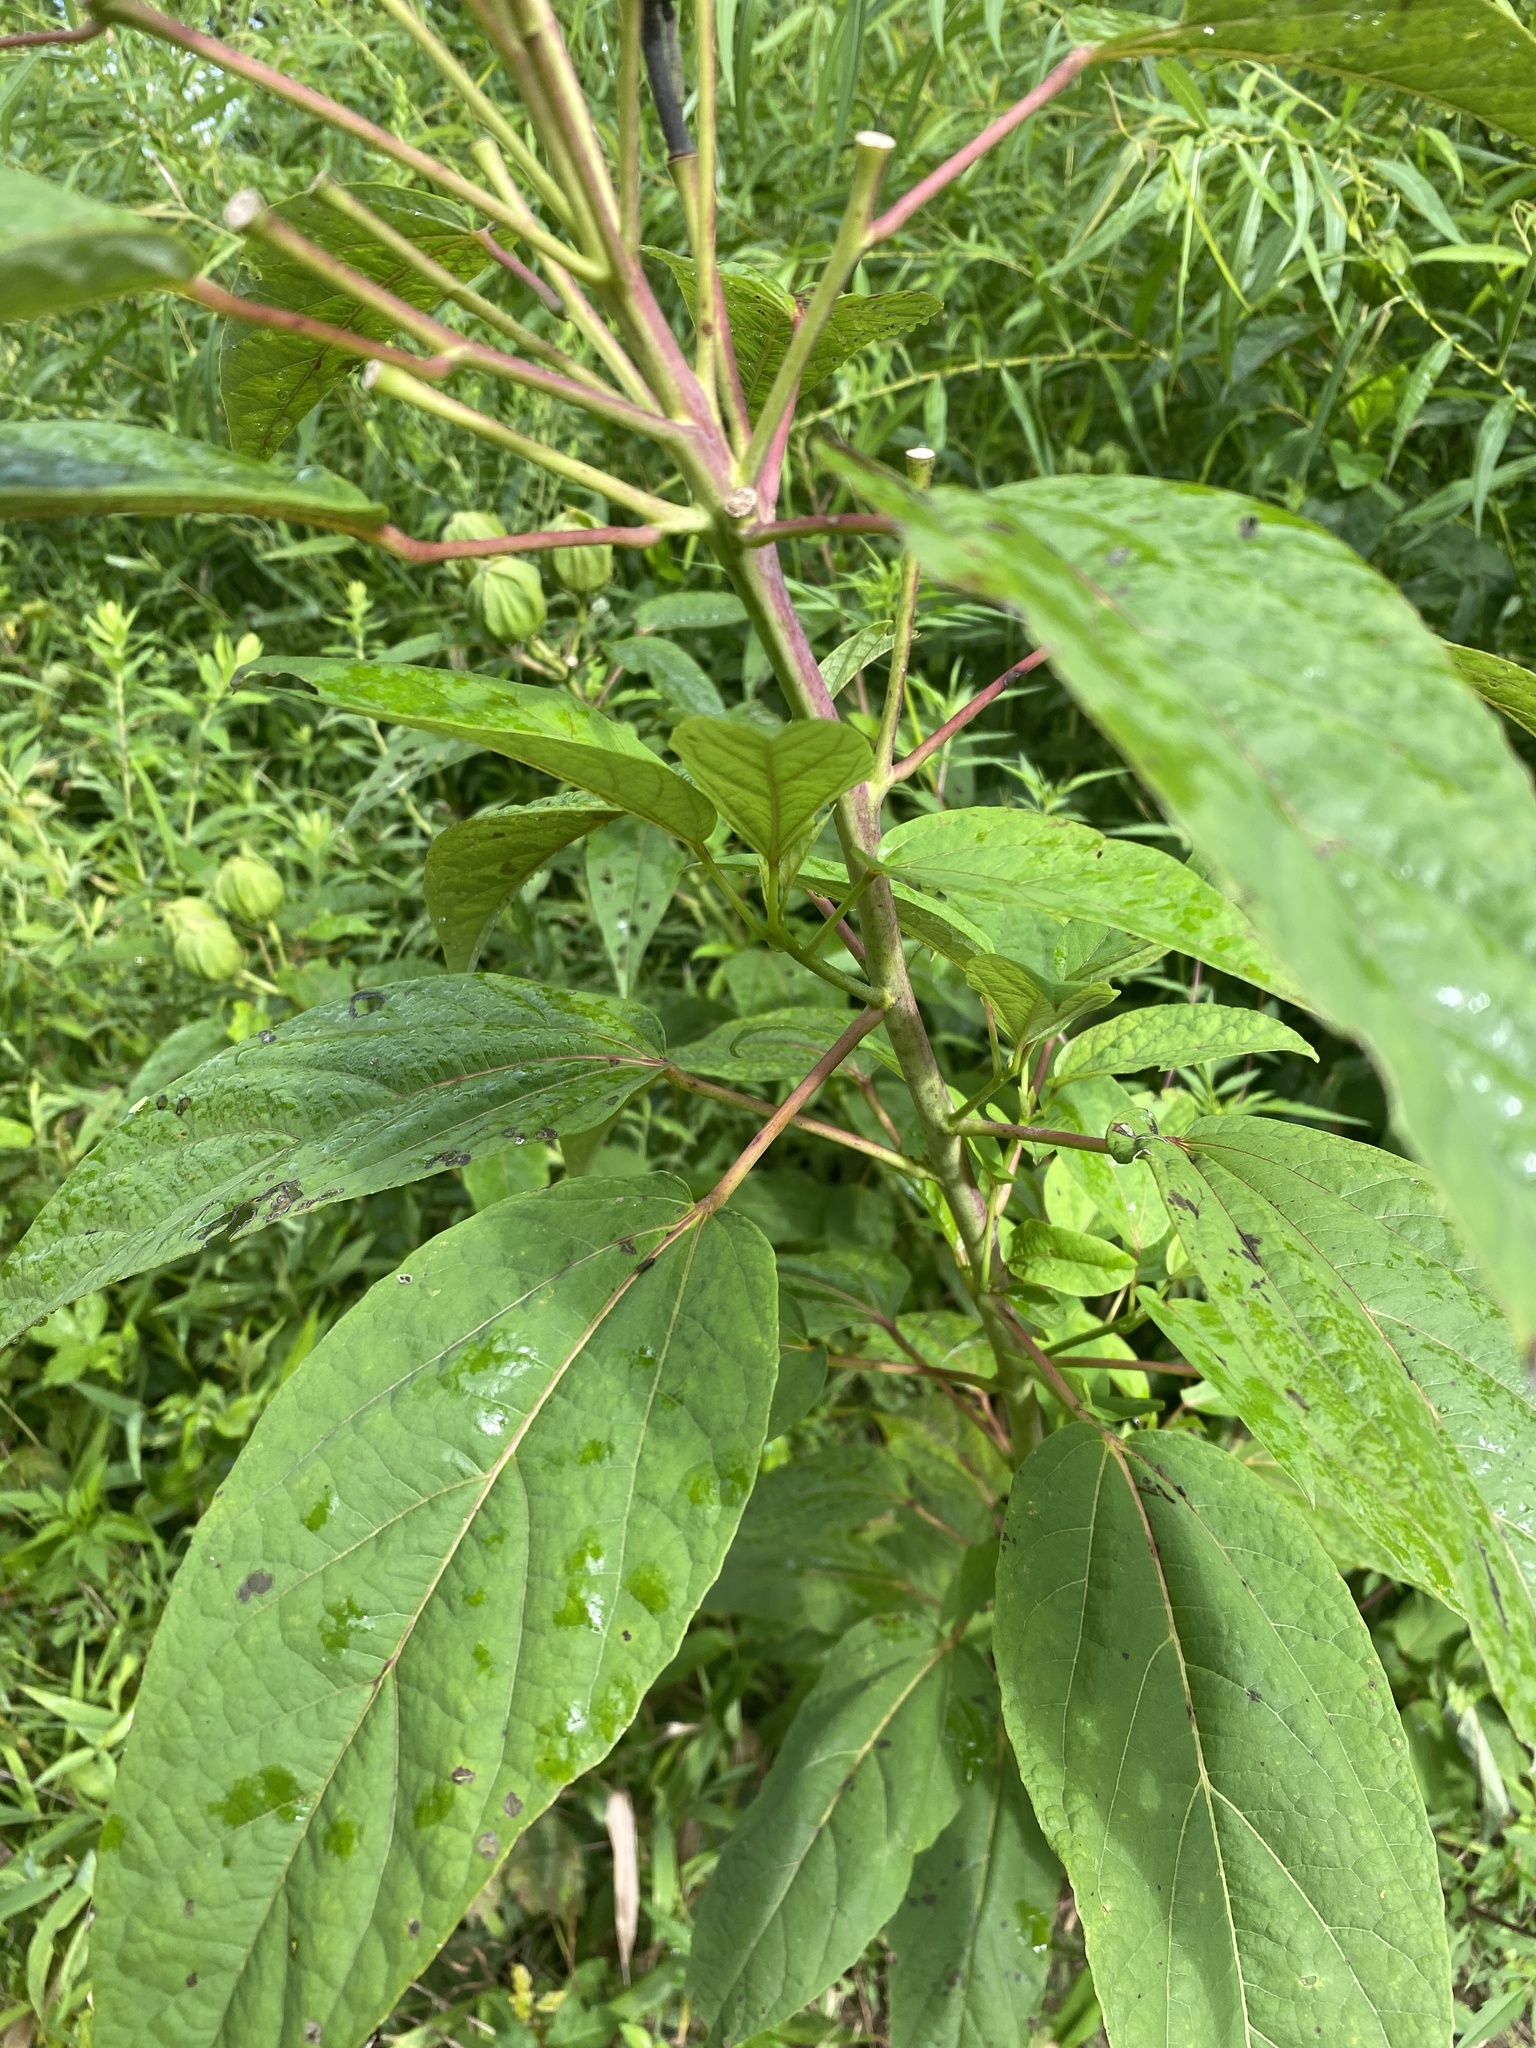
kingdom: Plantae
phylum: Tracheophyta
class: Magnoliopsida
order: Malvales
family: Malvaceae
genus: Hibiscus
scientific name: Hibiscus moscheutos
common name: Common rose-mallow
